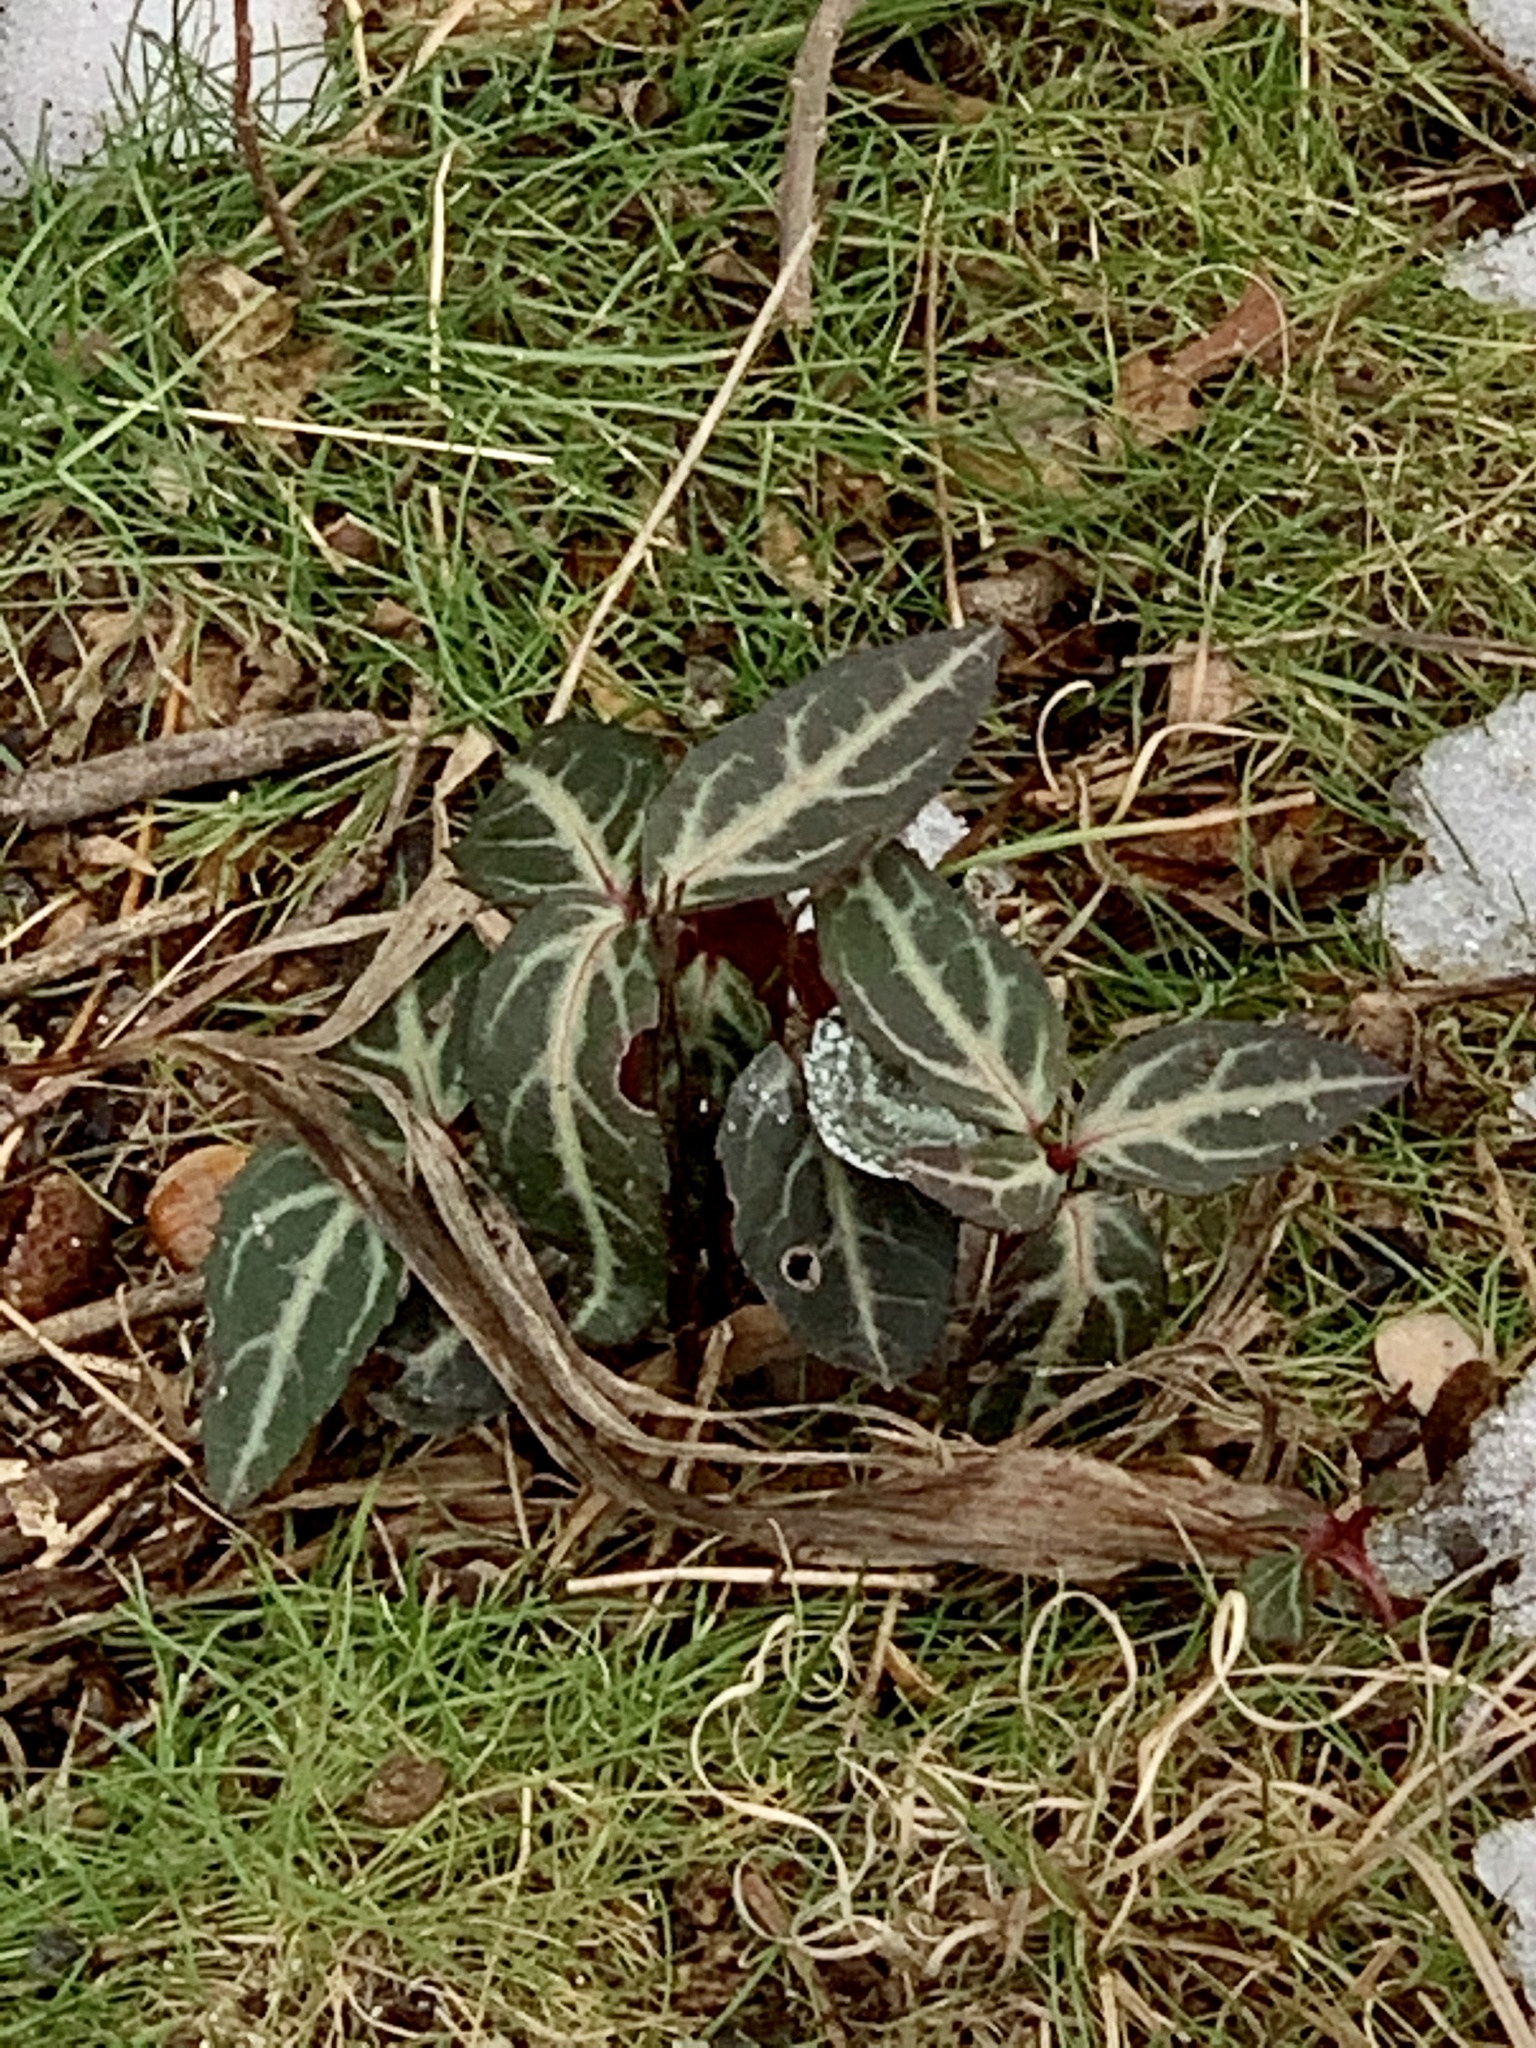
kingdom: Plantae
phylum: Tracheophyta
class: Magnoliopsida
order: Ericales
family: Ericaceae
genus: Chimaphila
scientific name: Chimaphila maculata
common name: Spotted pipsissewa
